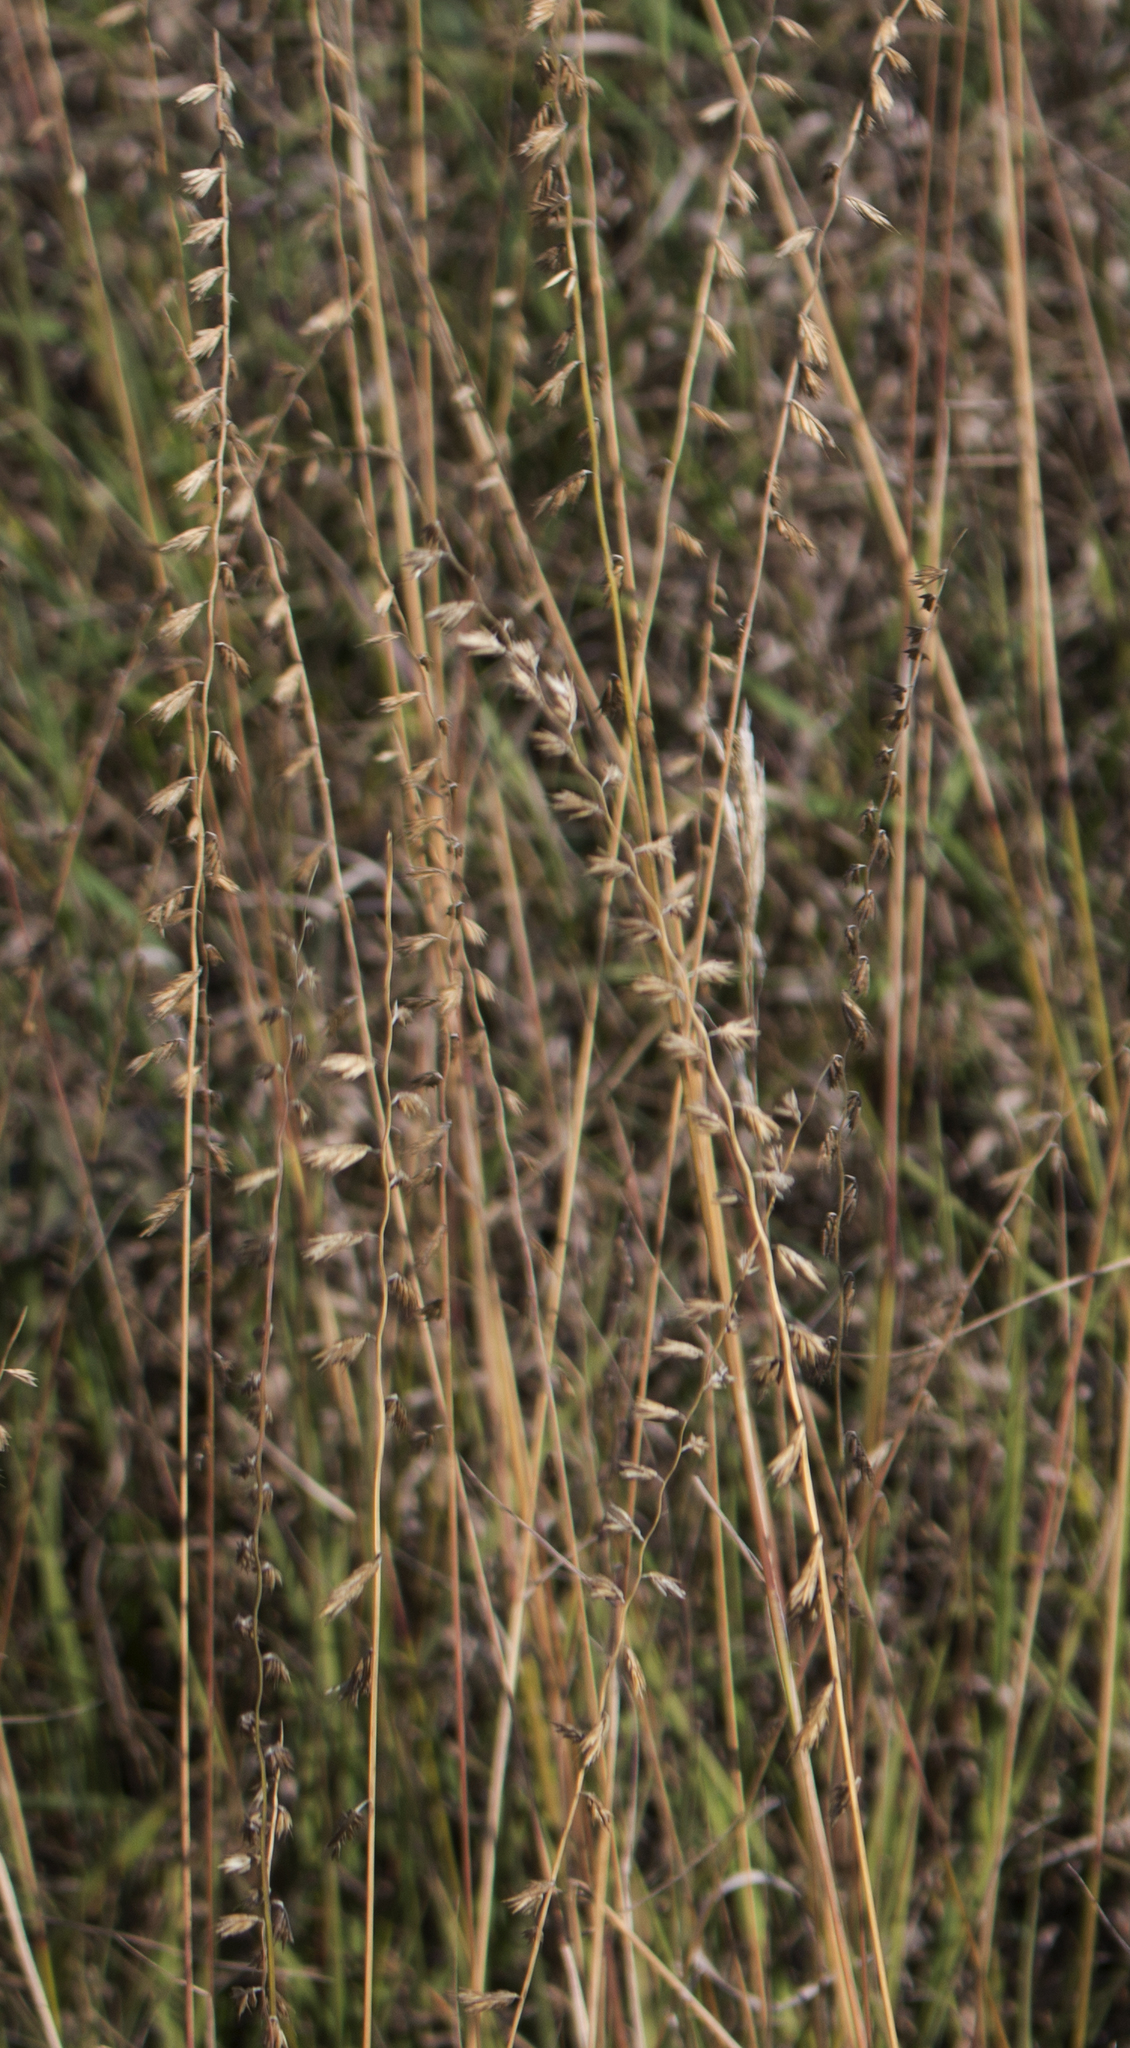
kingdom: Plantae
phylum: Tracheophyta
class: Liliopsida
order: Poales
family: Poaceae
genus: Bouteloua
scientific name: Bouteloua curtipendula
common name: Side-oats grama
